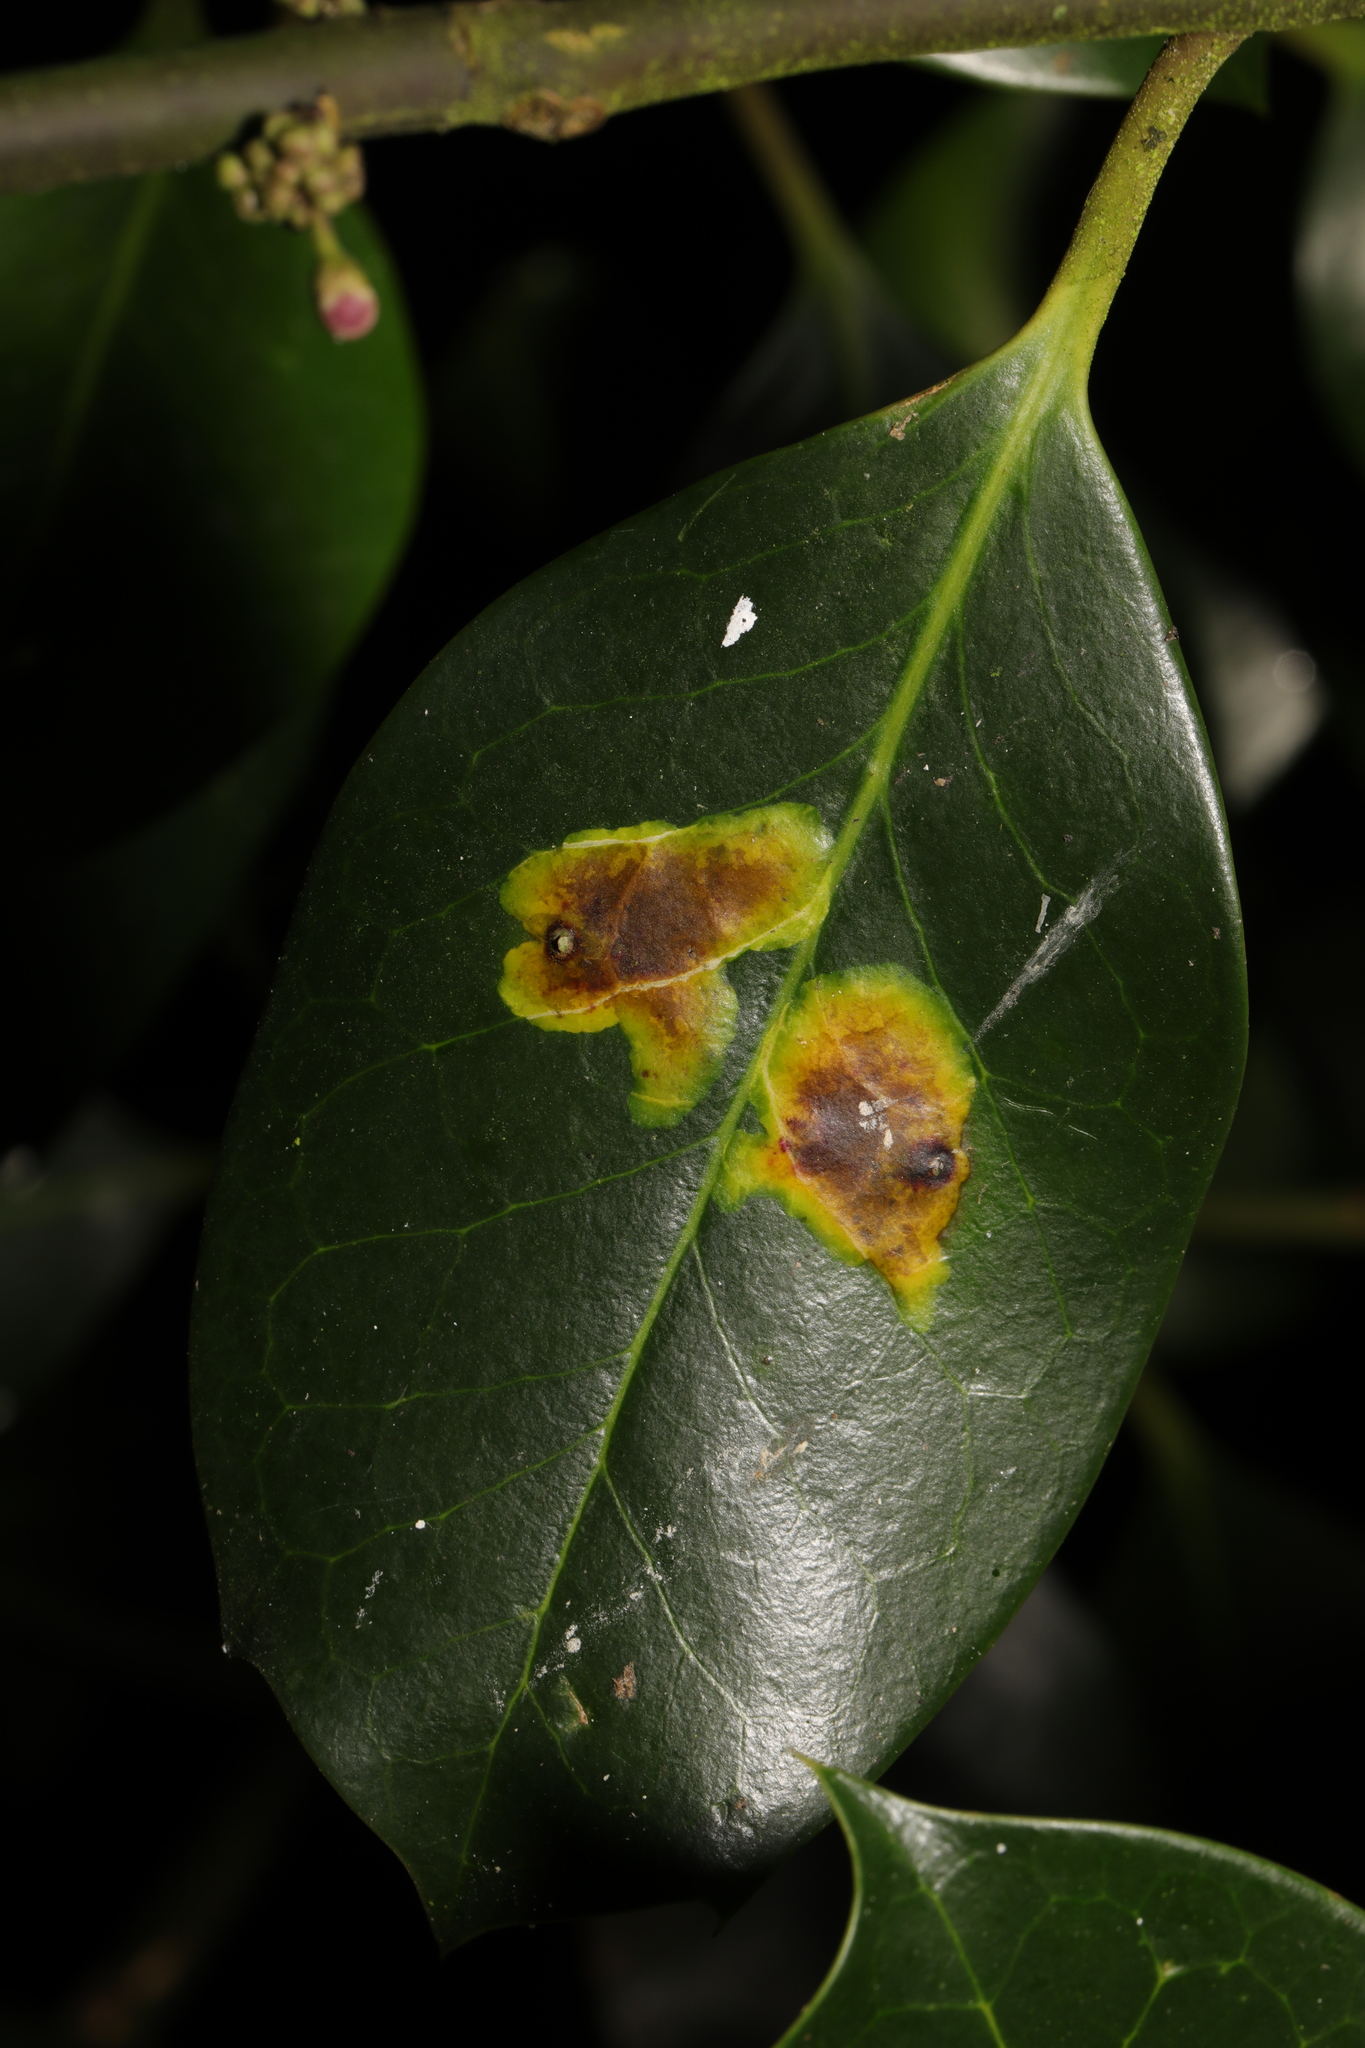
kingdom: Animalia
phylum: Arthropoda
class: Insecta
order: Diptera
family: Agromyzidae
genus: Phytomyza
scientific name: Phytomyza ilicis
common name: Holly leafminer
